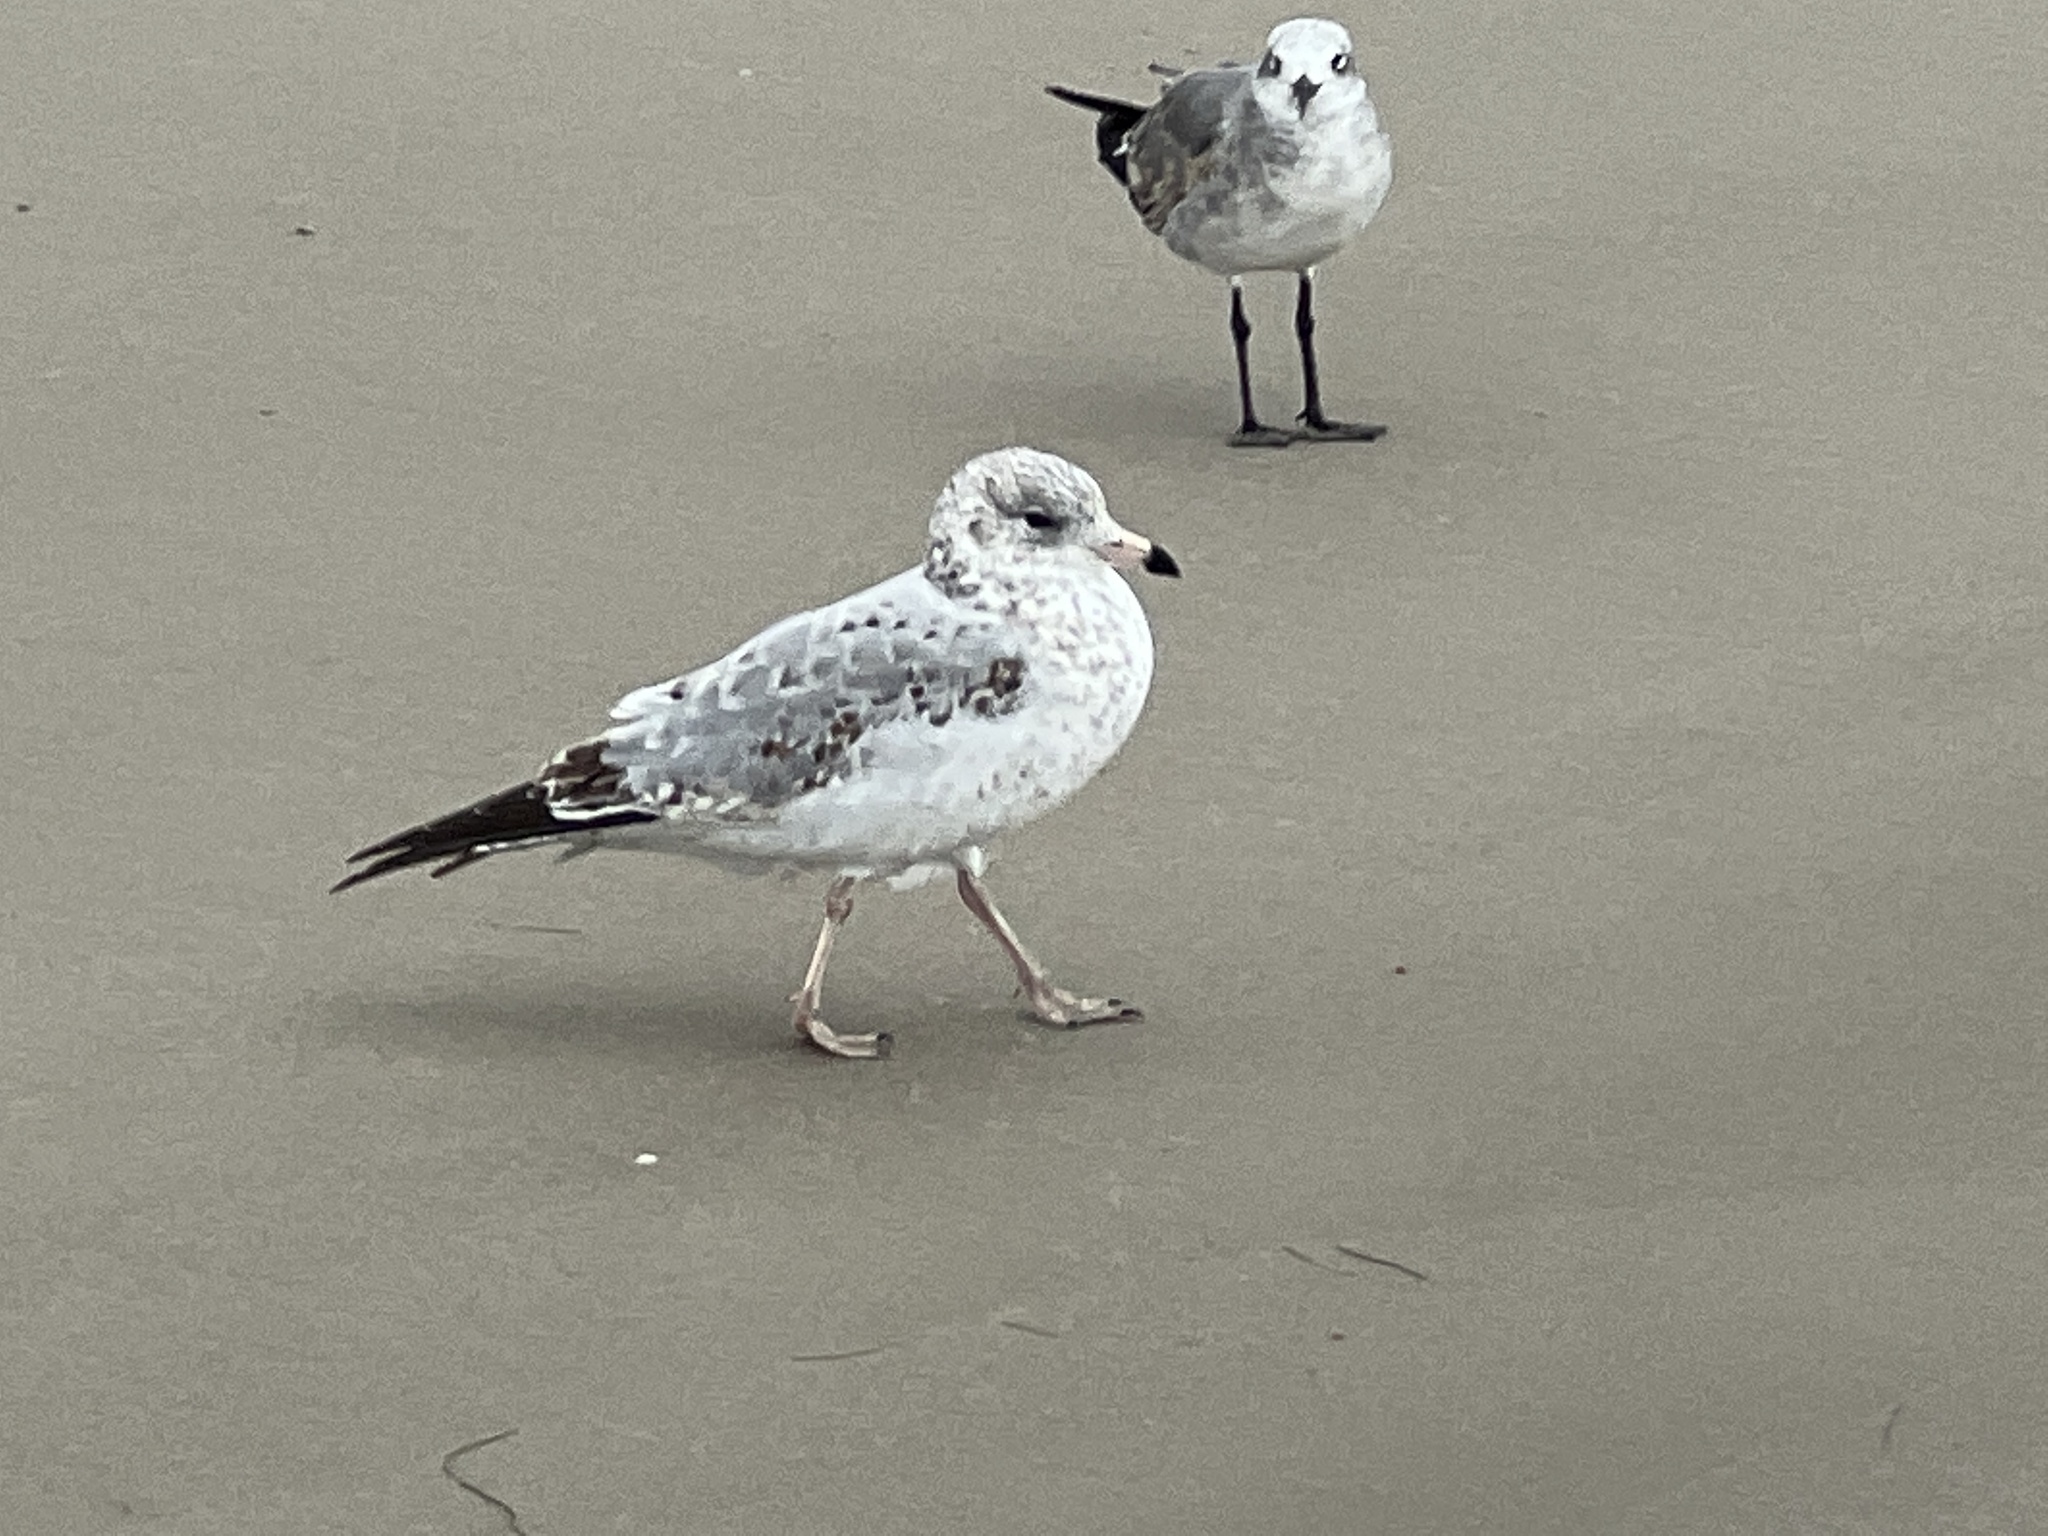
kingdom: Animalia
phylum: Chordata
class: Aves
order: Charadriiformes
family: Laridae
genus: Larus
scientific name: Larus delawarensis
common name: Ring-billed gull
